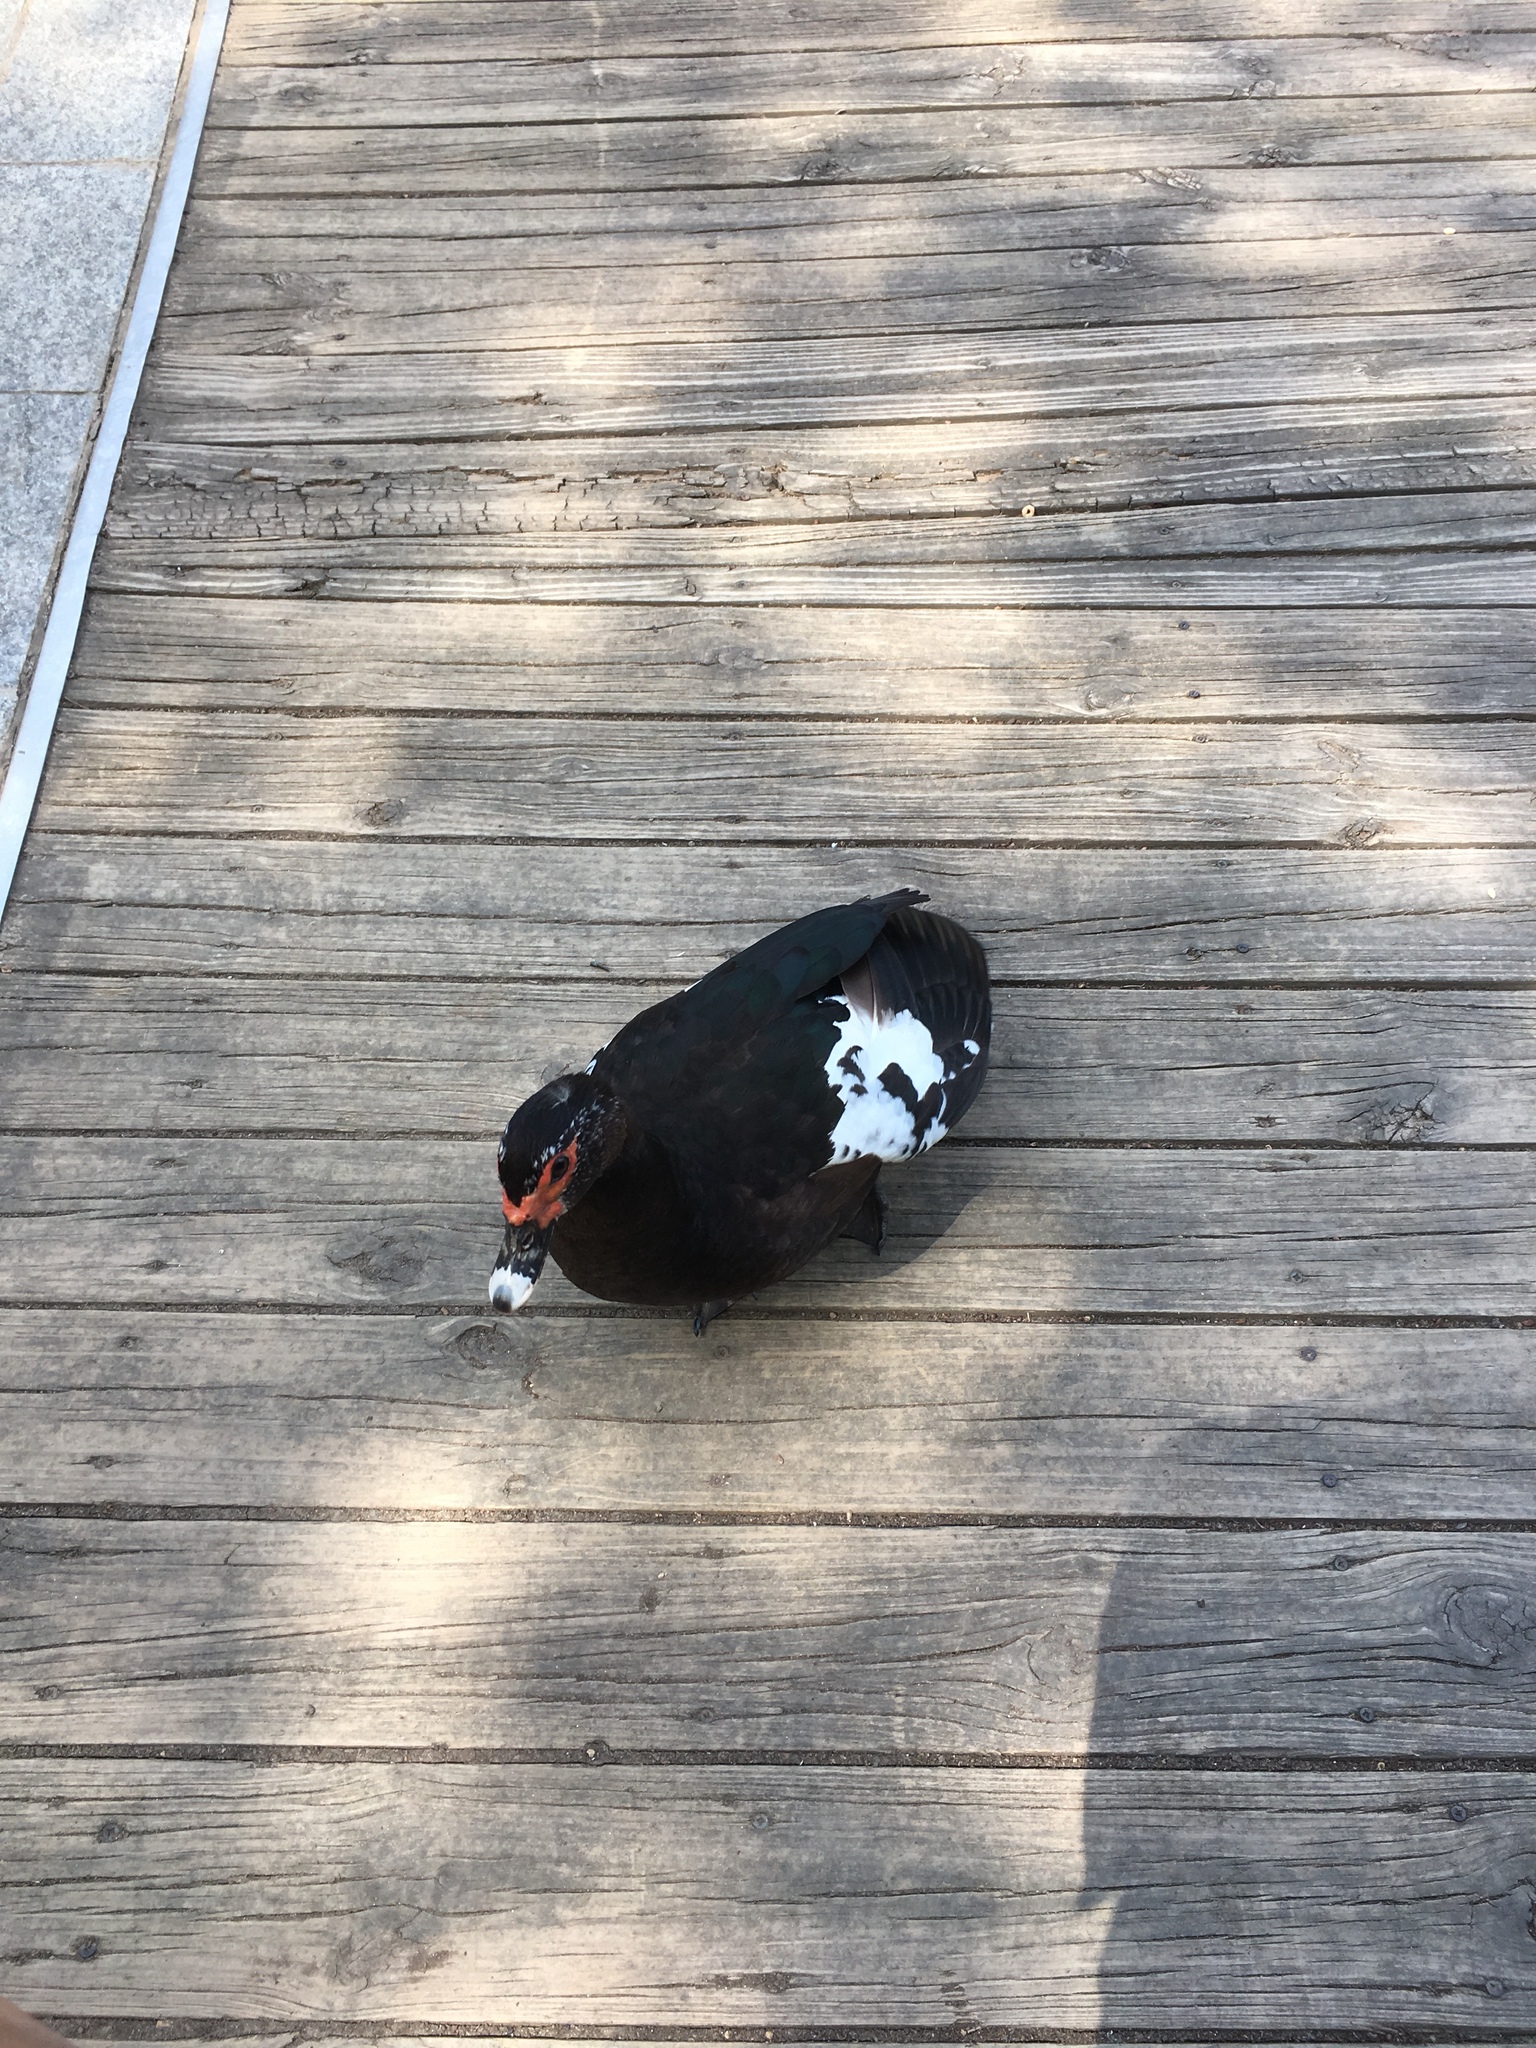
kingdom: Animalia
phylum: Chordata
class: Aves
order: Anseriformes
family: Anatidae
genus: Cairina
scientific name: Cairina moschata
